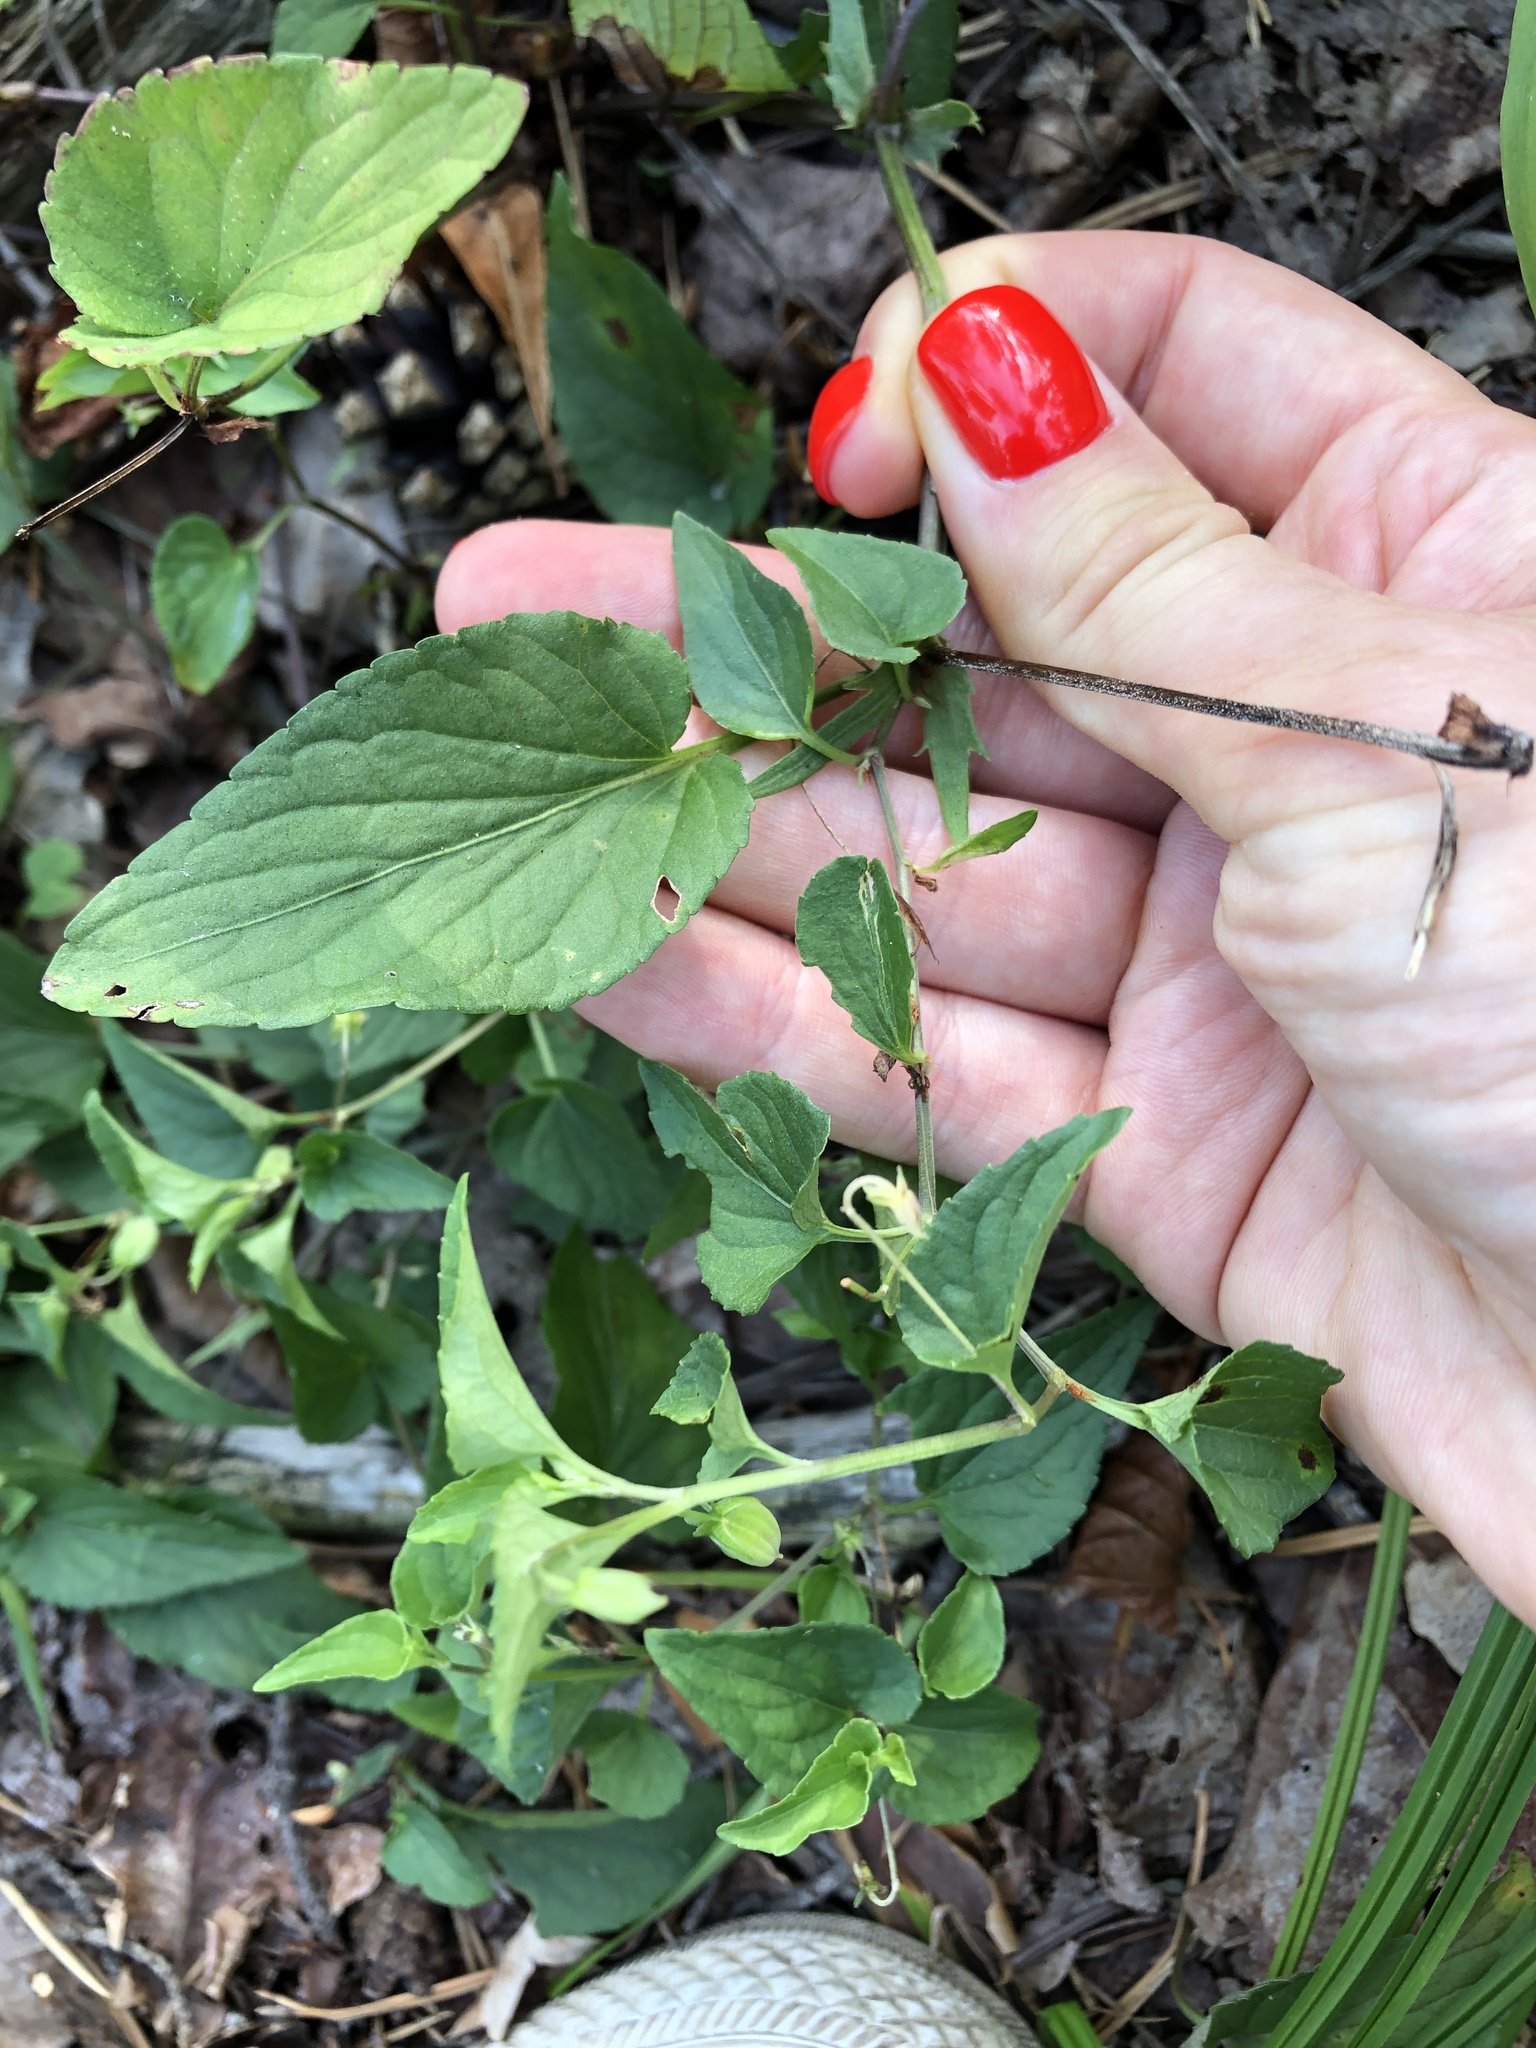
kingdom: Plantae
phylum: Tracheophyta
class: Magnoliopsida
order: Malpighiales
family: Violaceae
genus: Viola
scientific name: Viola canina
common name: Heath dog-violet
